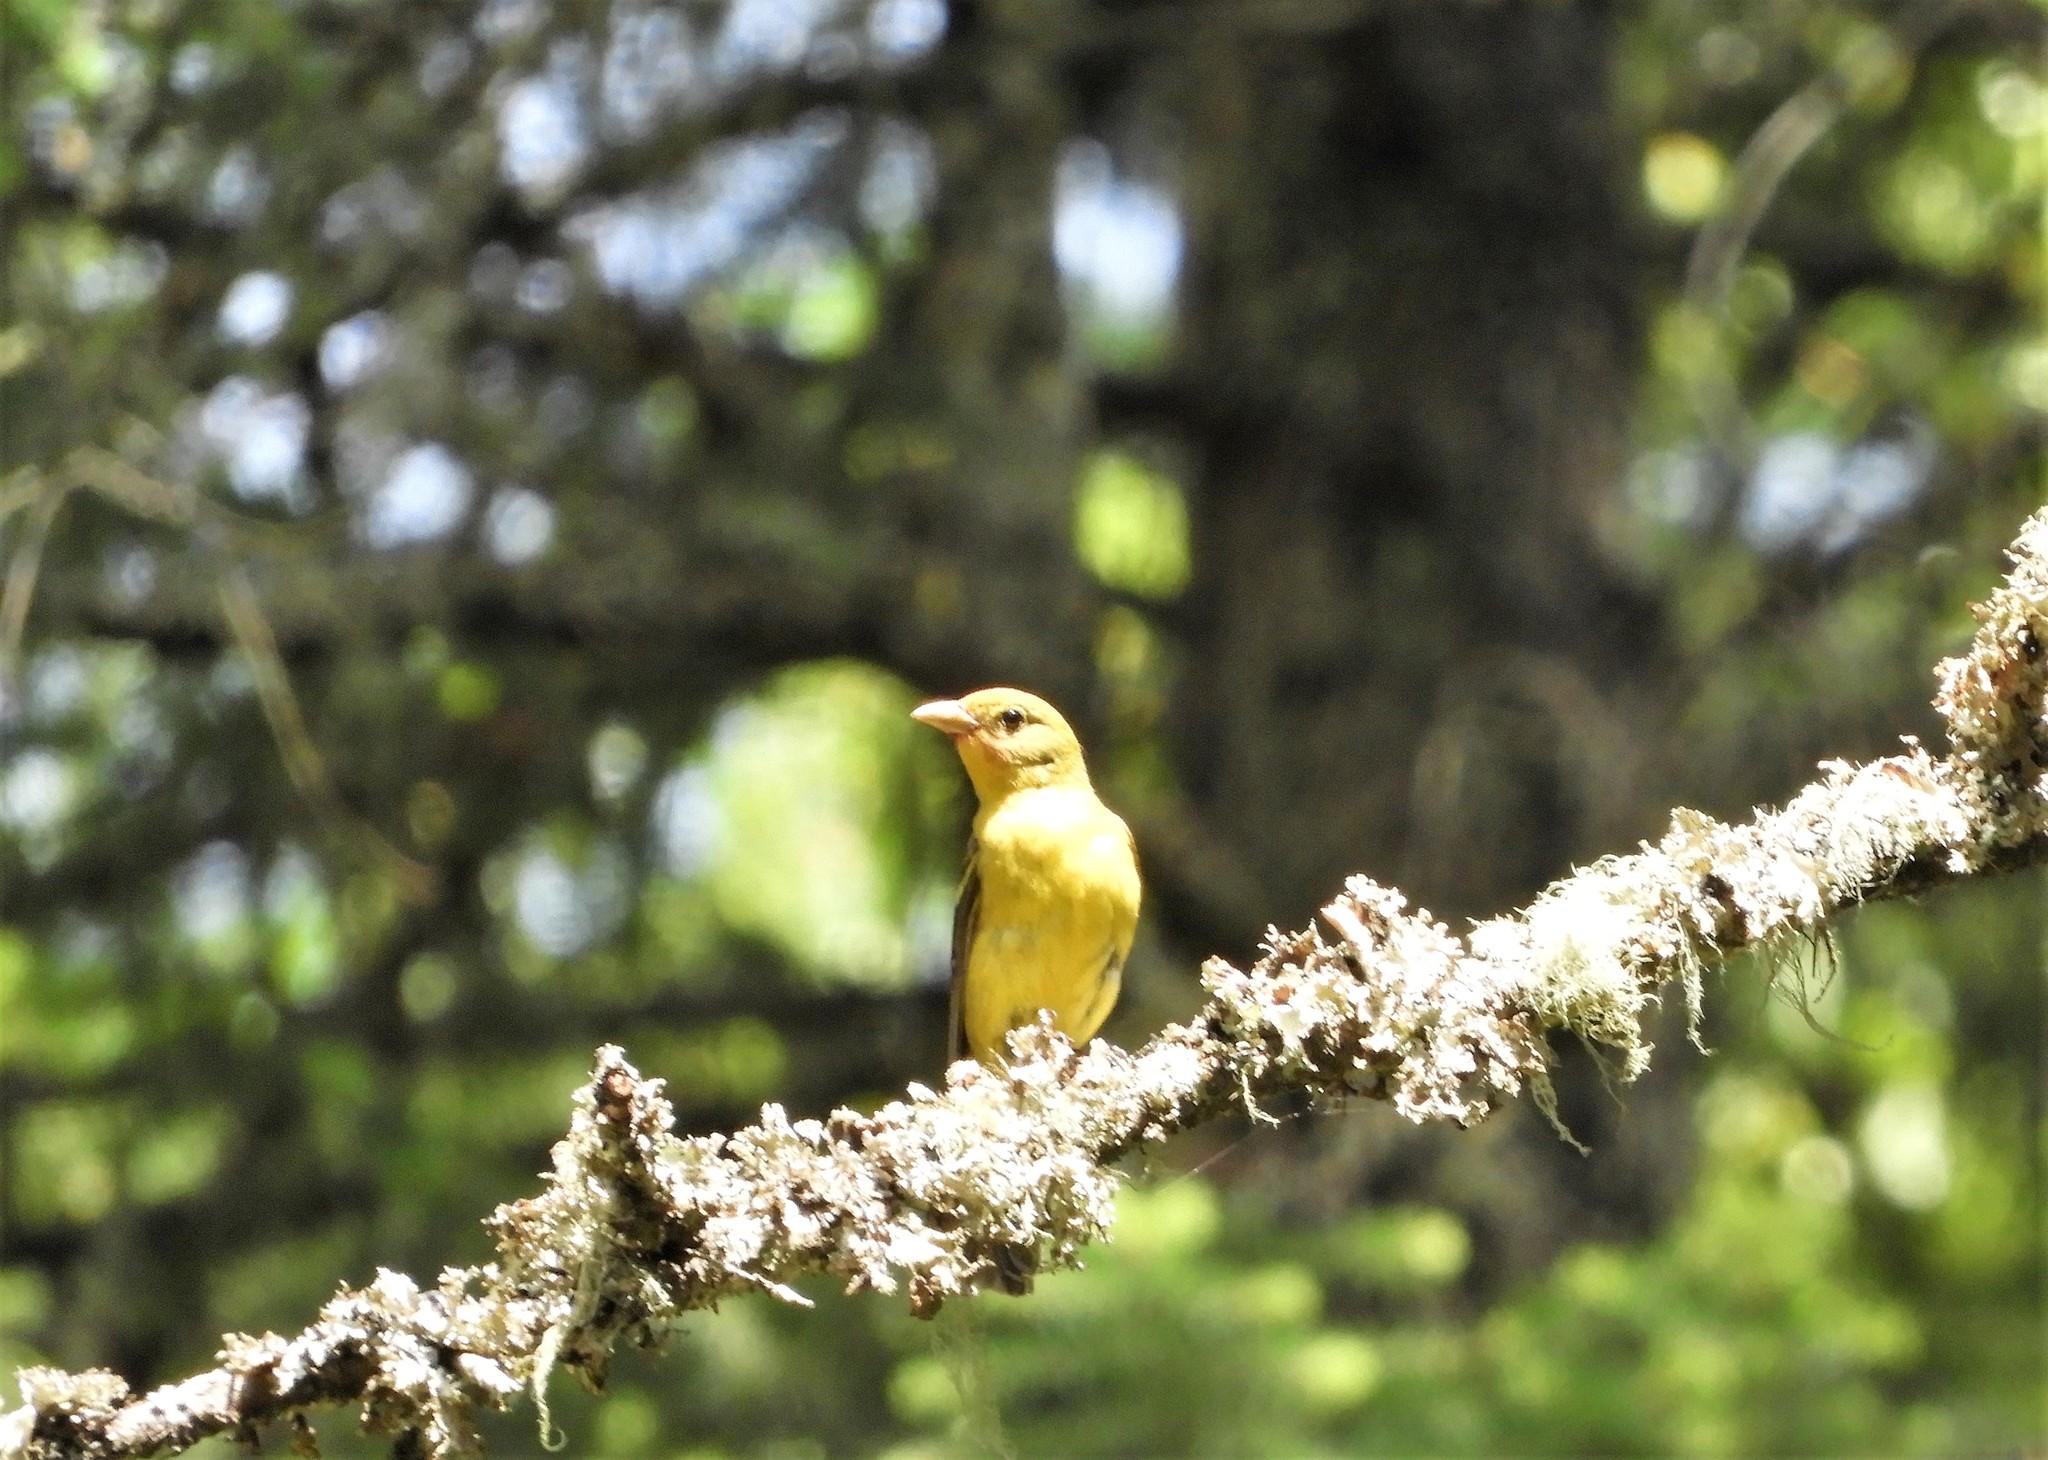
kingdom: Animalia
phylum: Chordata
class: Aves
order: Passeriformes
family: Cardinalidae
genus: Piranga
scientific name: Piranga ludoviciana
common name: Western tanager
